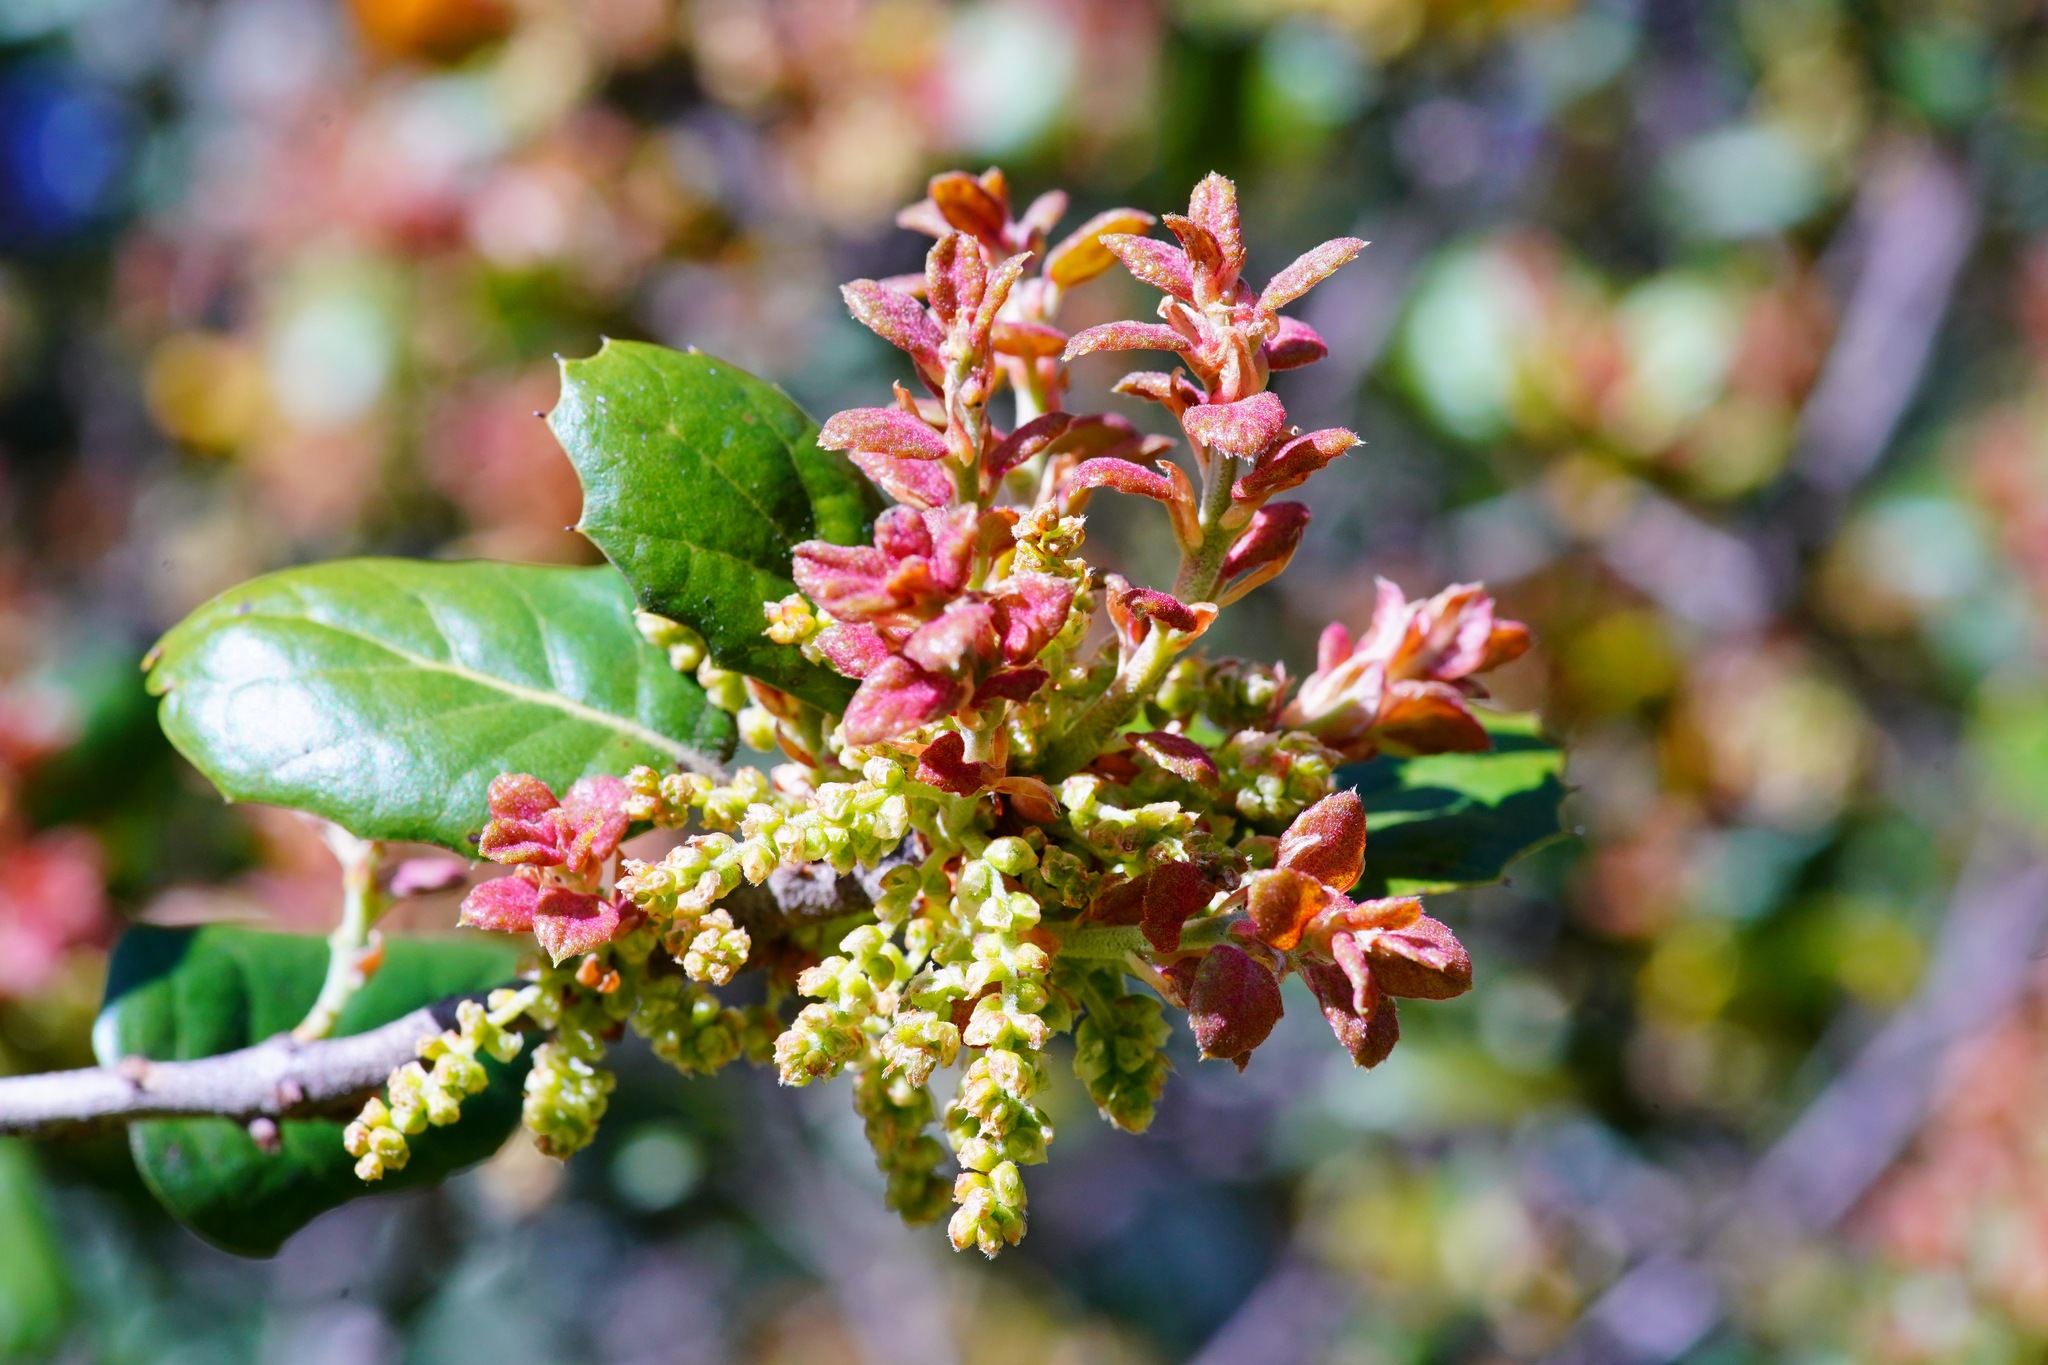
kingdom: Plantae
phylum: Tracheophyta
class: Magnoliopsida
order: Fagales
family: Fagaceae
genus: Quercus
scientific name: Quercus agrifolia
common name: California live oak
